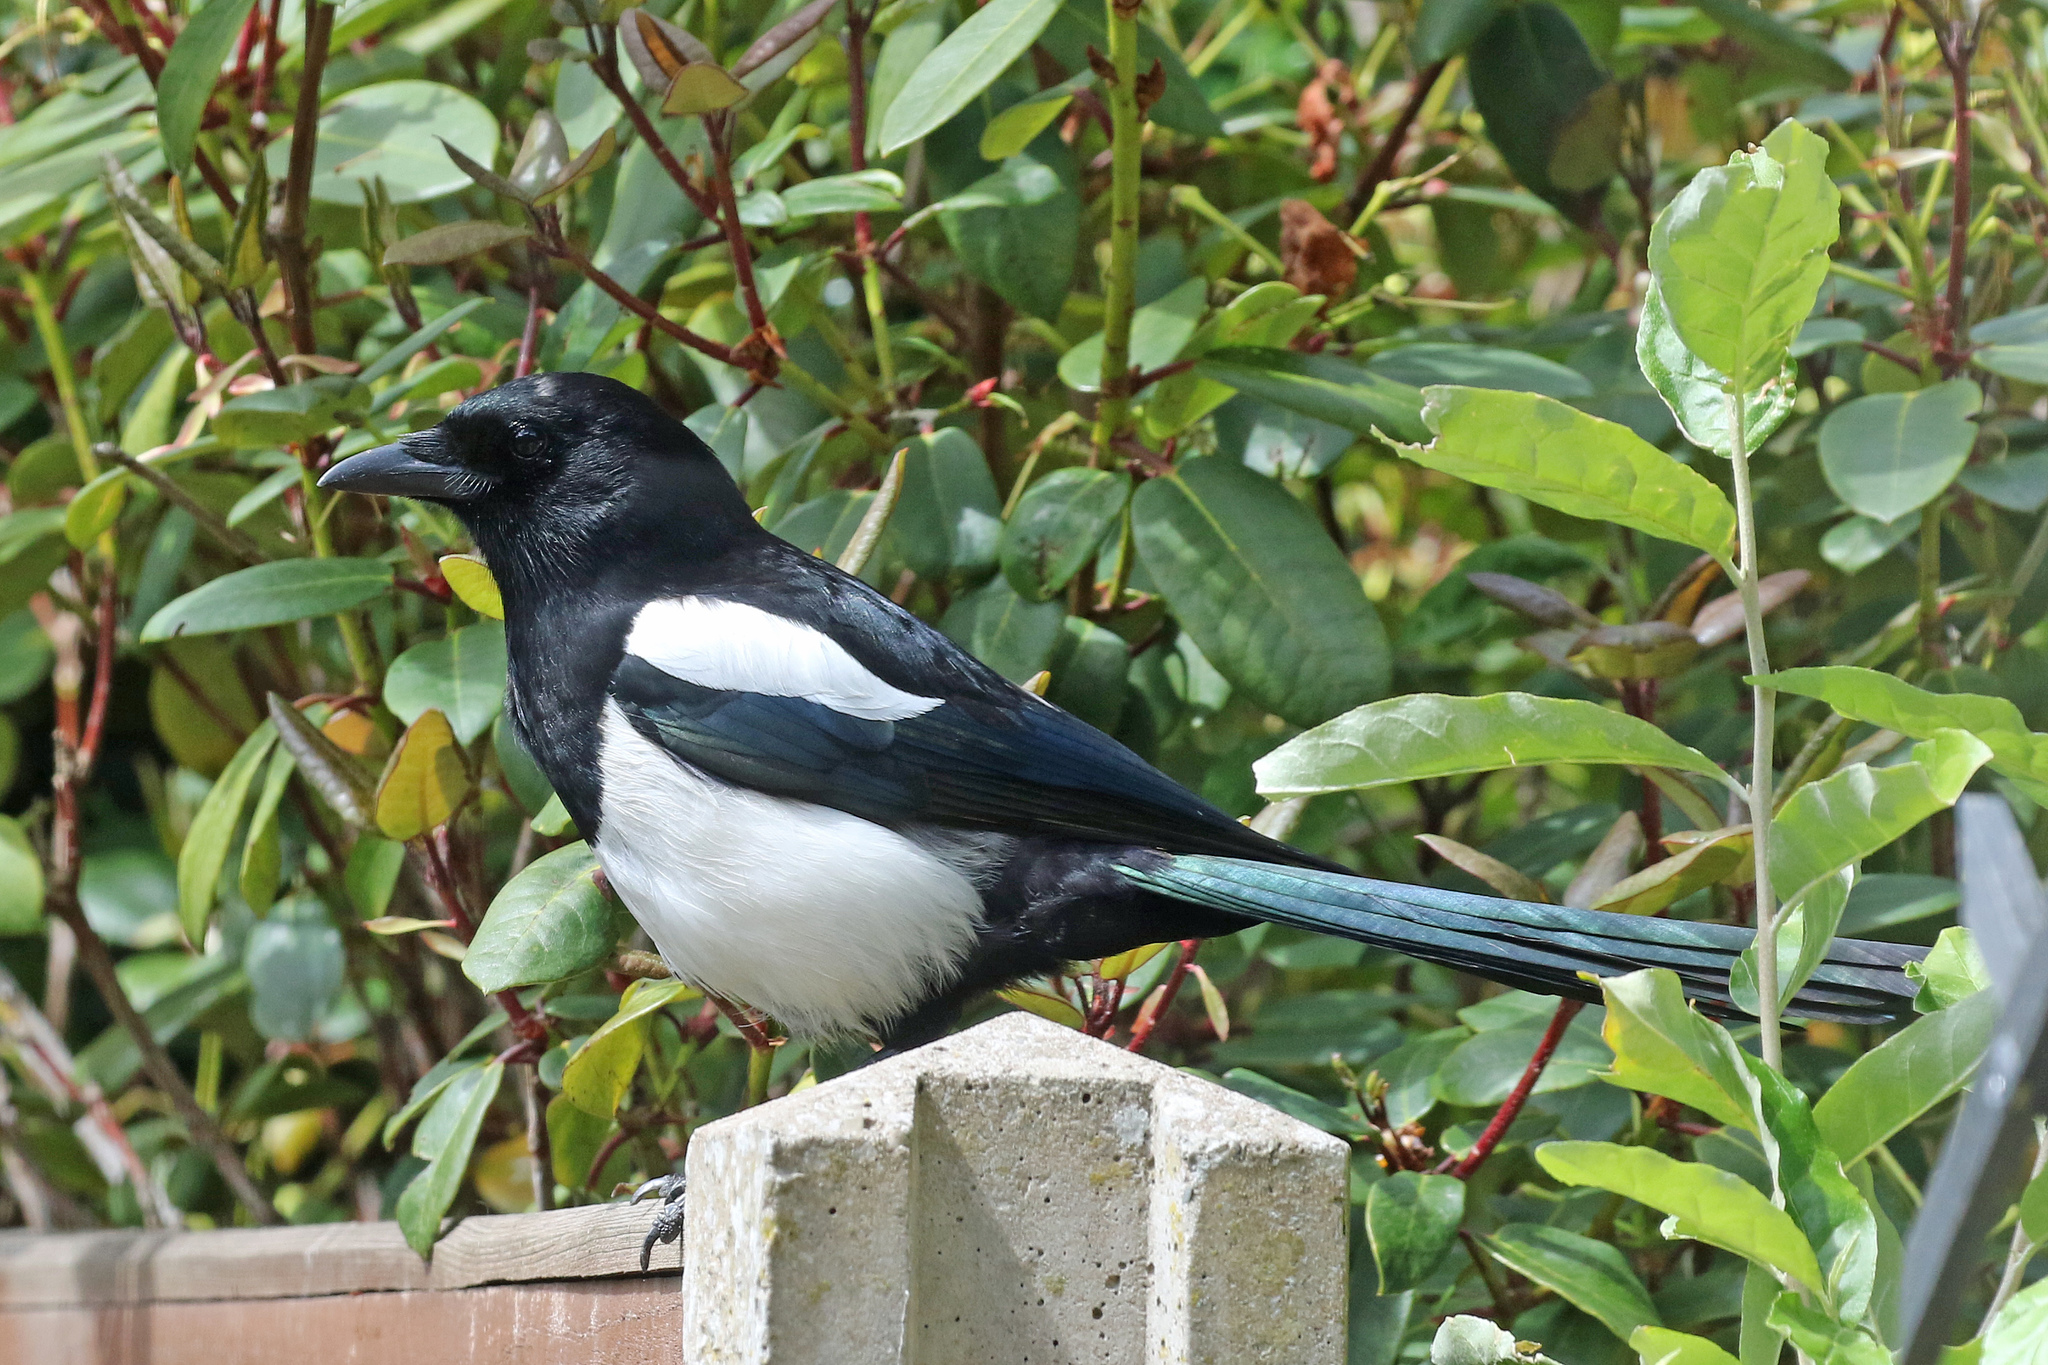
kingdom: Animalia
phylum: Chordata
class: Aves
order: Passeriformes
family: Corvidae
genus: Pica
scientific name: Pica pica
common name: Eurasian magpie
